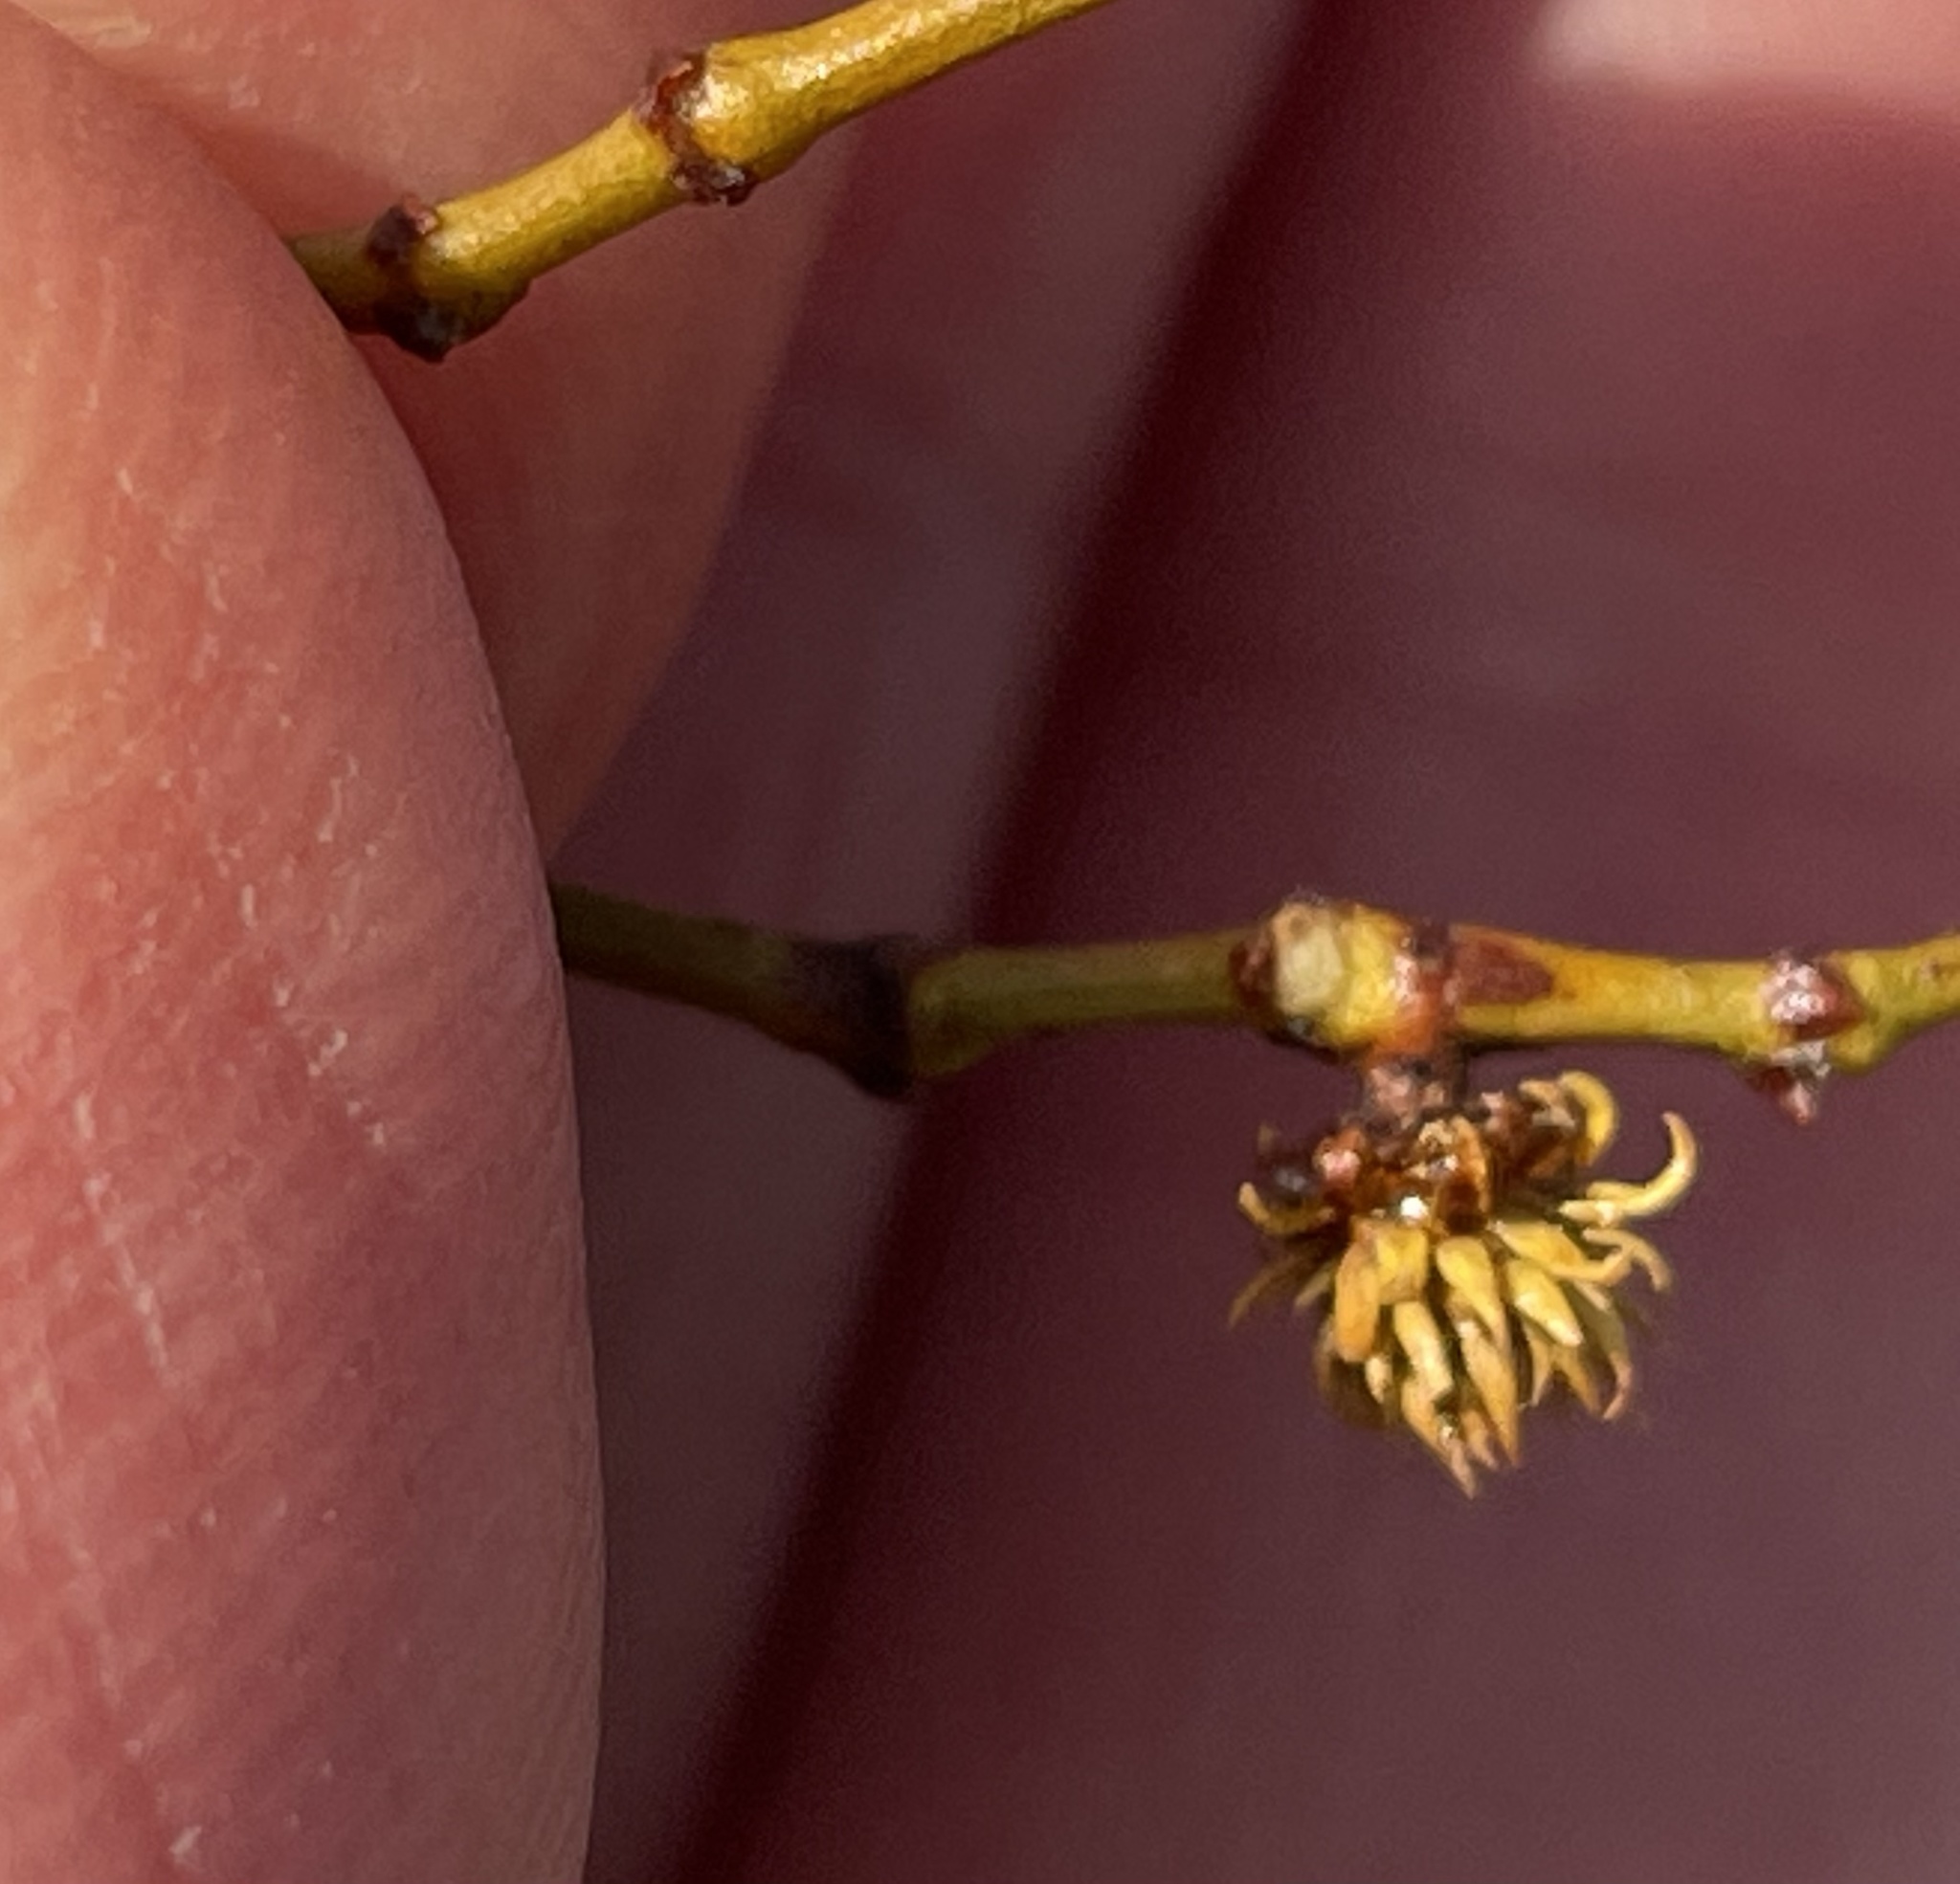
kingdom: Animalia
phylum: Arthropoda
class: Insecta
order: Diptera
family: Cecidomyiidae
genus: Asphondylia
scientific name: Asphondylia rosetta
